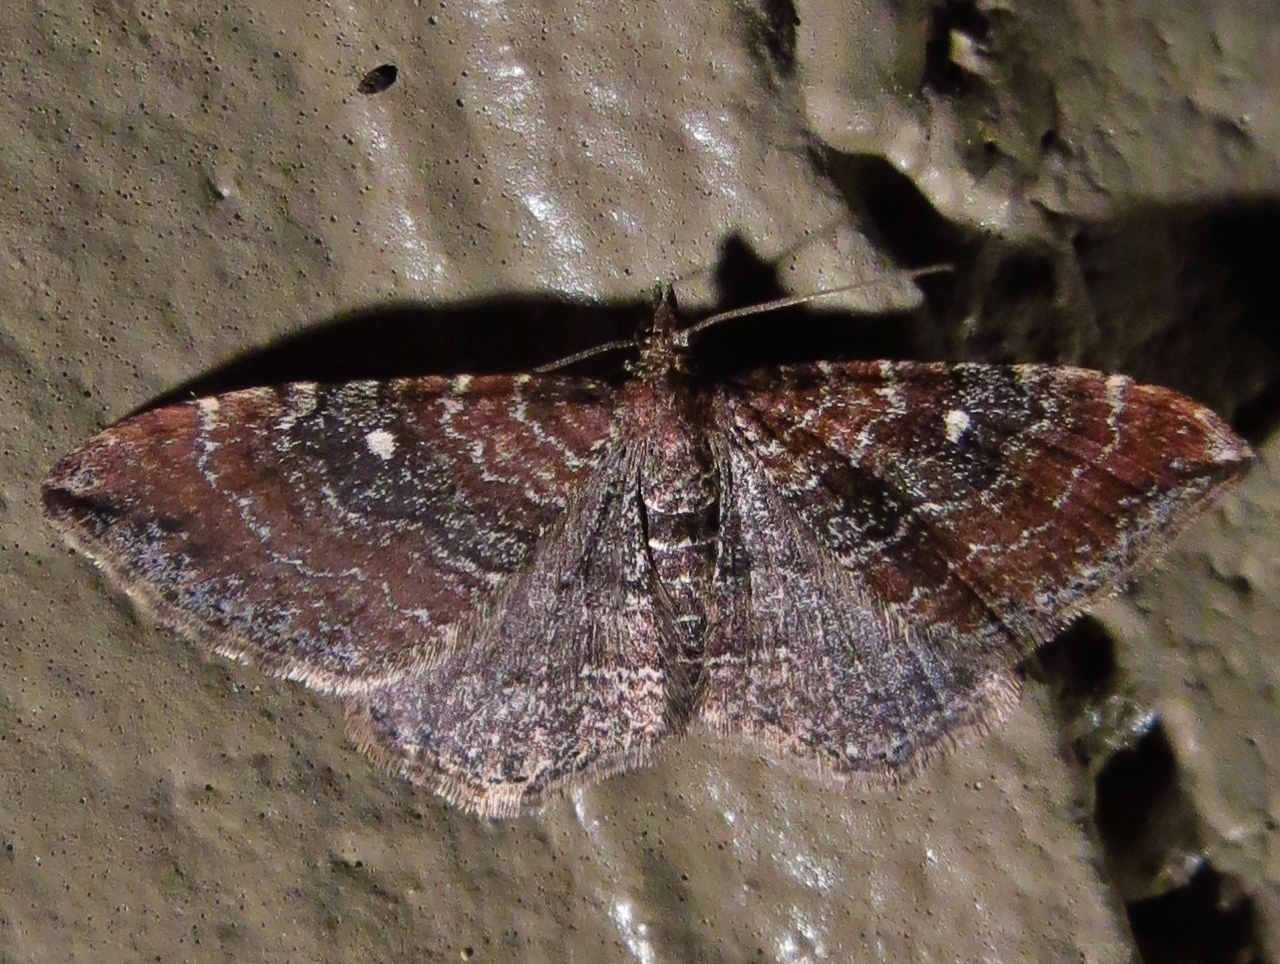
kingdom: Animalia
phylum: Arthropoda
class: Insecta
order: Lepidoptera
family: Geometridae
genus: Orthonama
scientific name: Orthonama obstipata
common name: The gem
